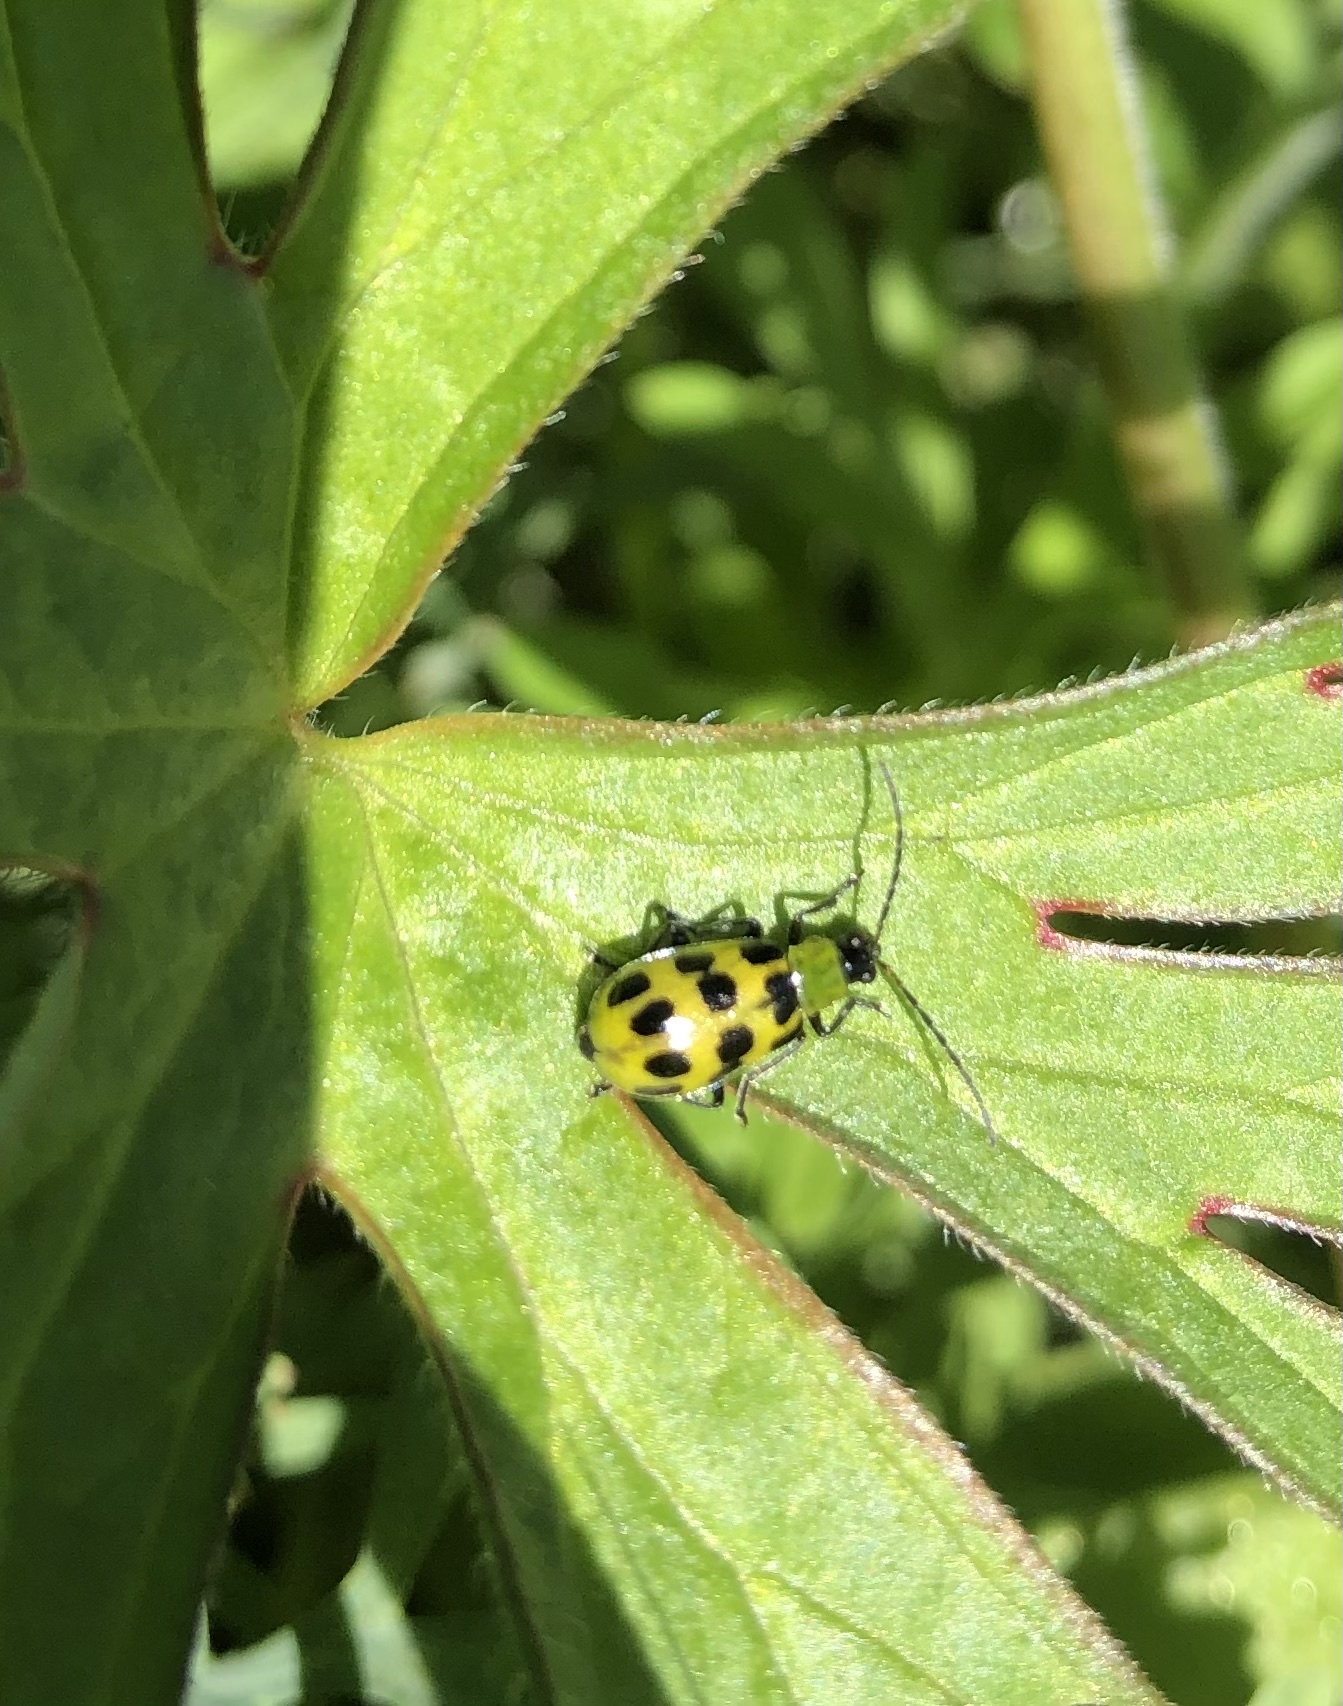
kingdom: Animalia
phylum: Arthropoda
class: Insecta
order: Coleoptera
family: Chrysomelidae
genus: Diabrotica
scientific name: Diabrotica undecimpunctata
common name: Spotted cucumber beetle
